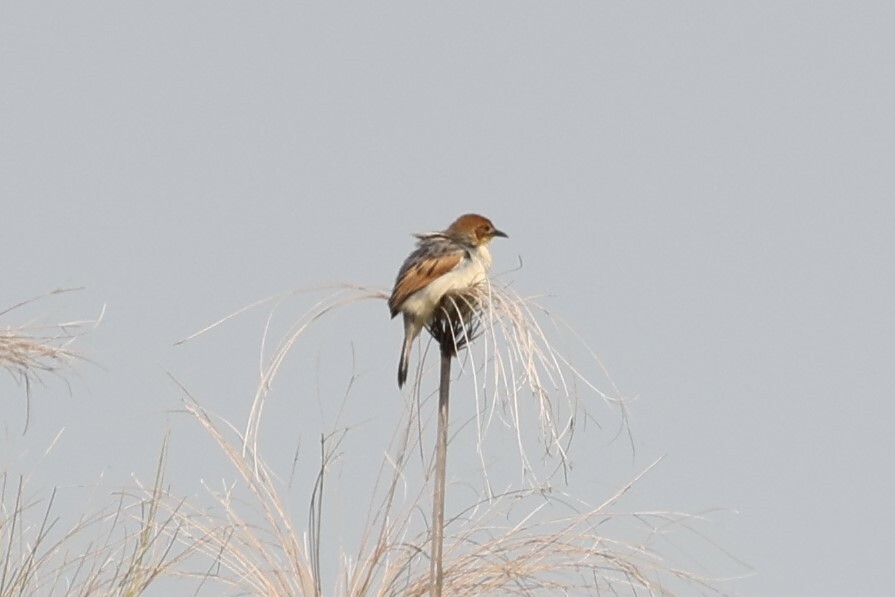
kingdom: Animalia
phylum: Chordata
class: Aves
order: Passeriformes
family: Cisticolidae
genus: Cisticola
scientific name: Cisticola marginatus
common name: Winding cisticola
